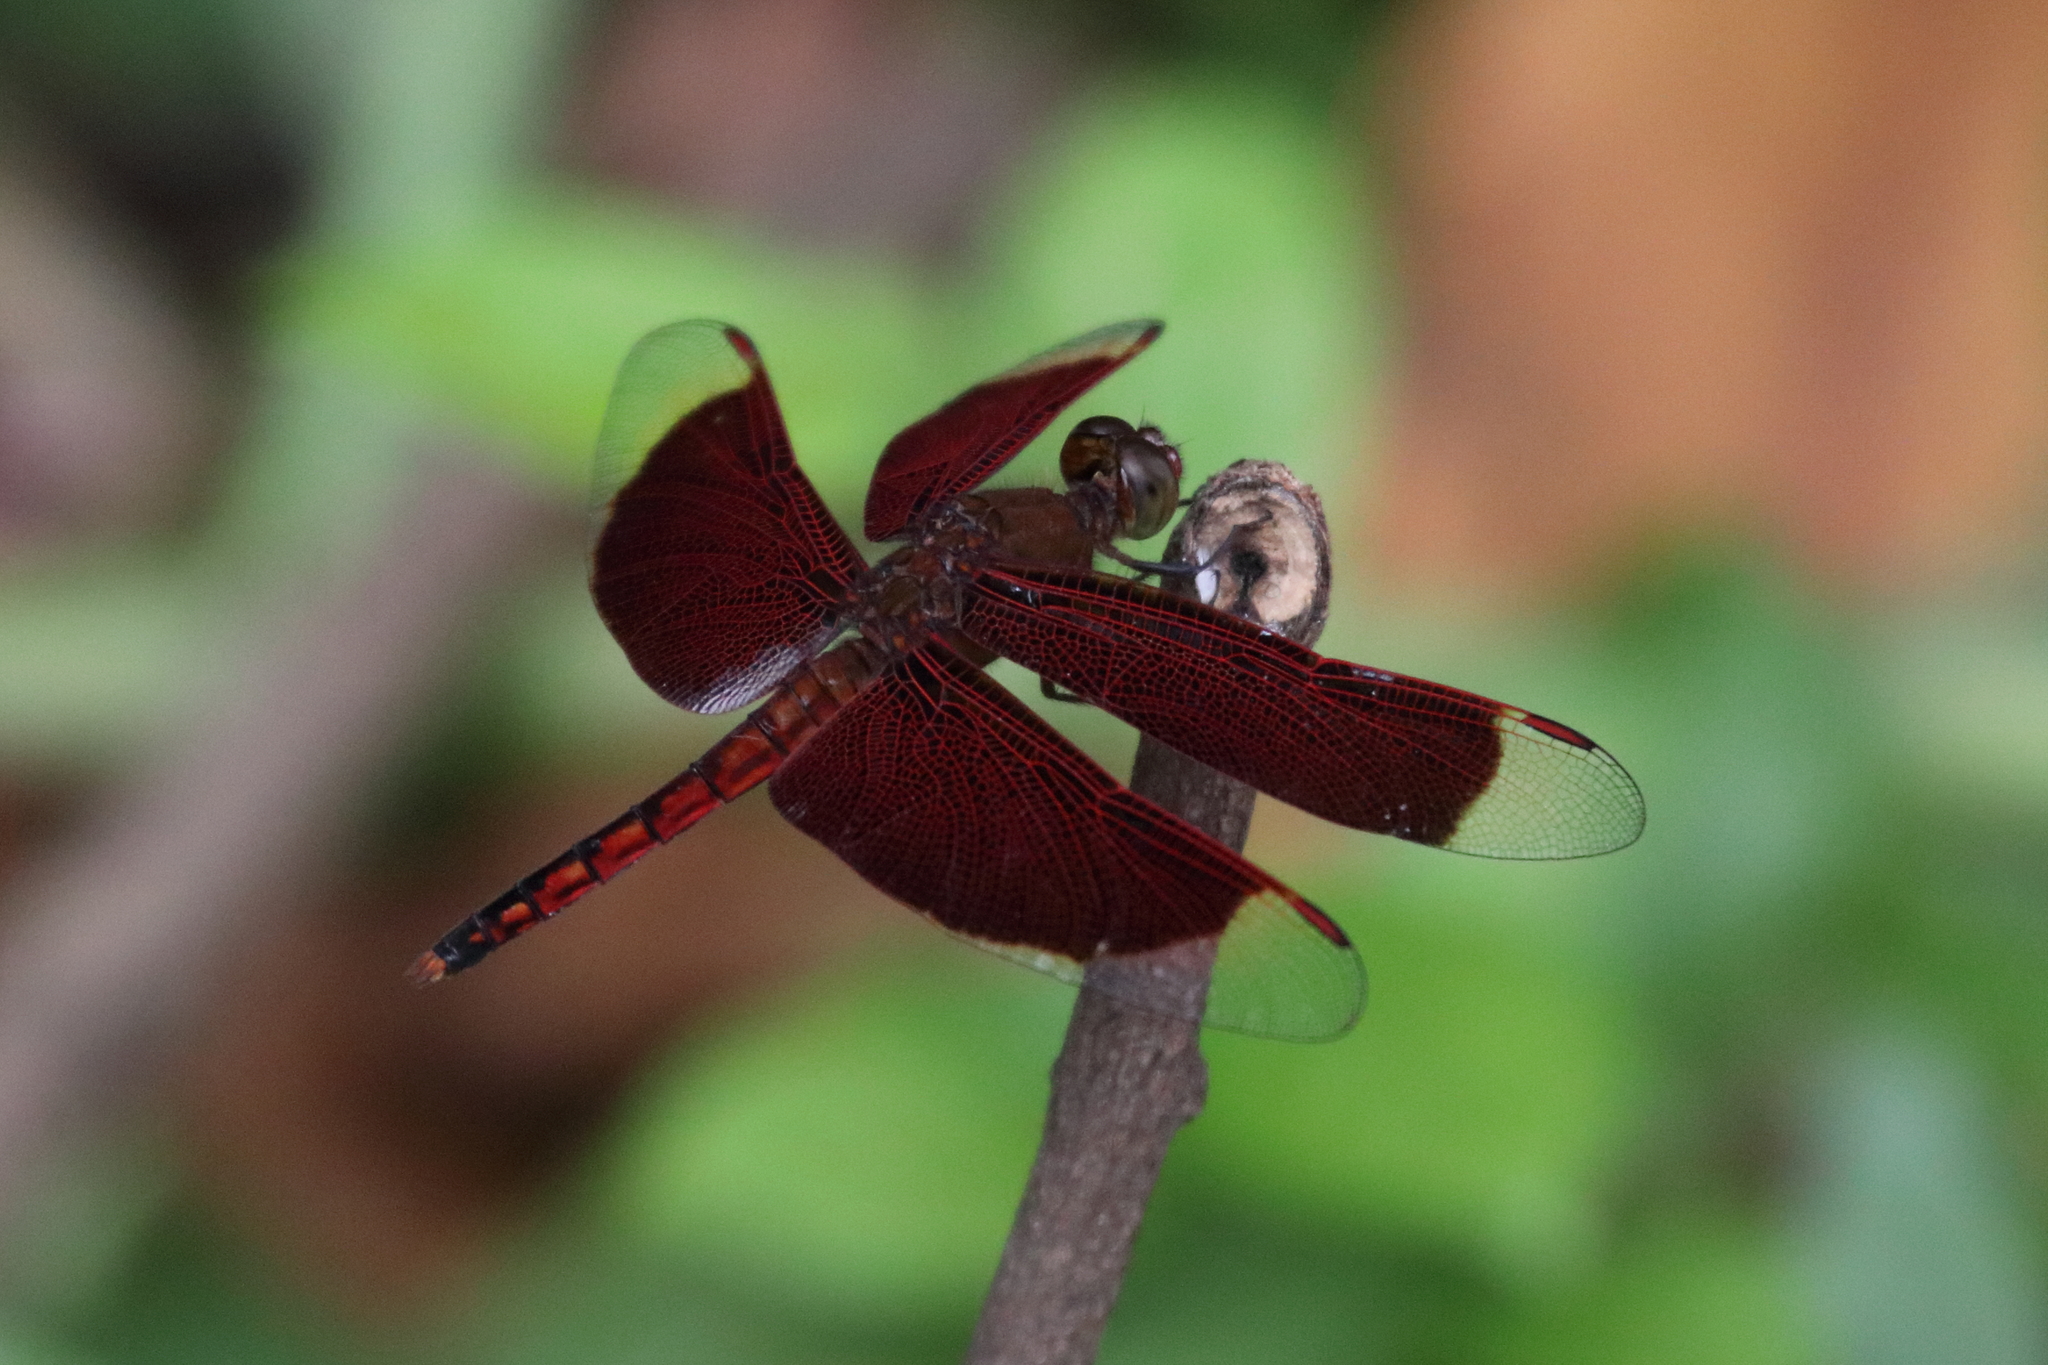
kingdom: Animalia
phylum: Arthropoda
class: Insecta
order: Odonata
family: Libellulidae
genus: Neurothemis
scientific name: Neurothemis ramburii
